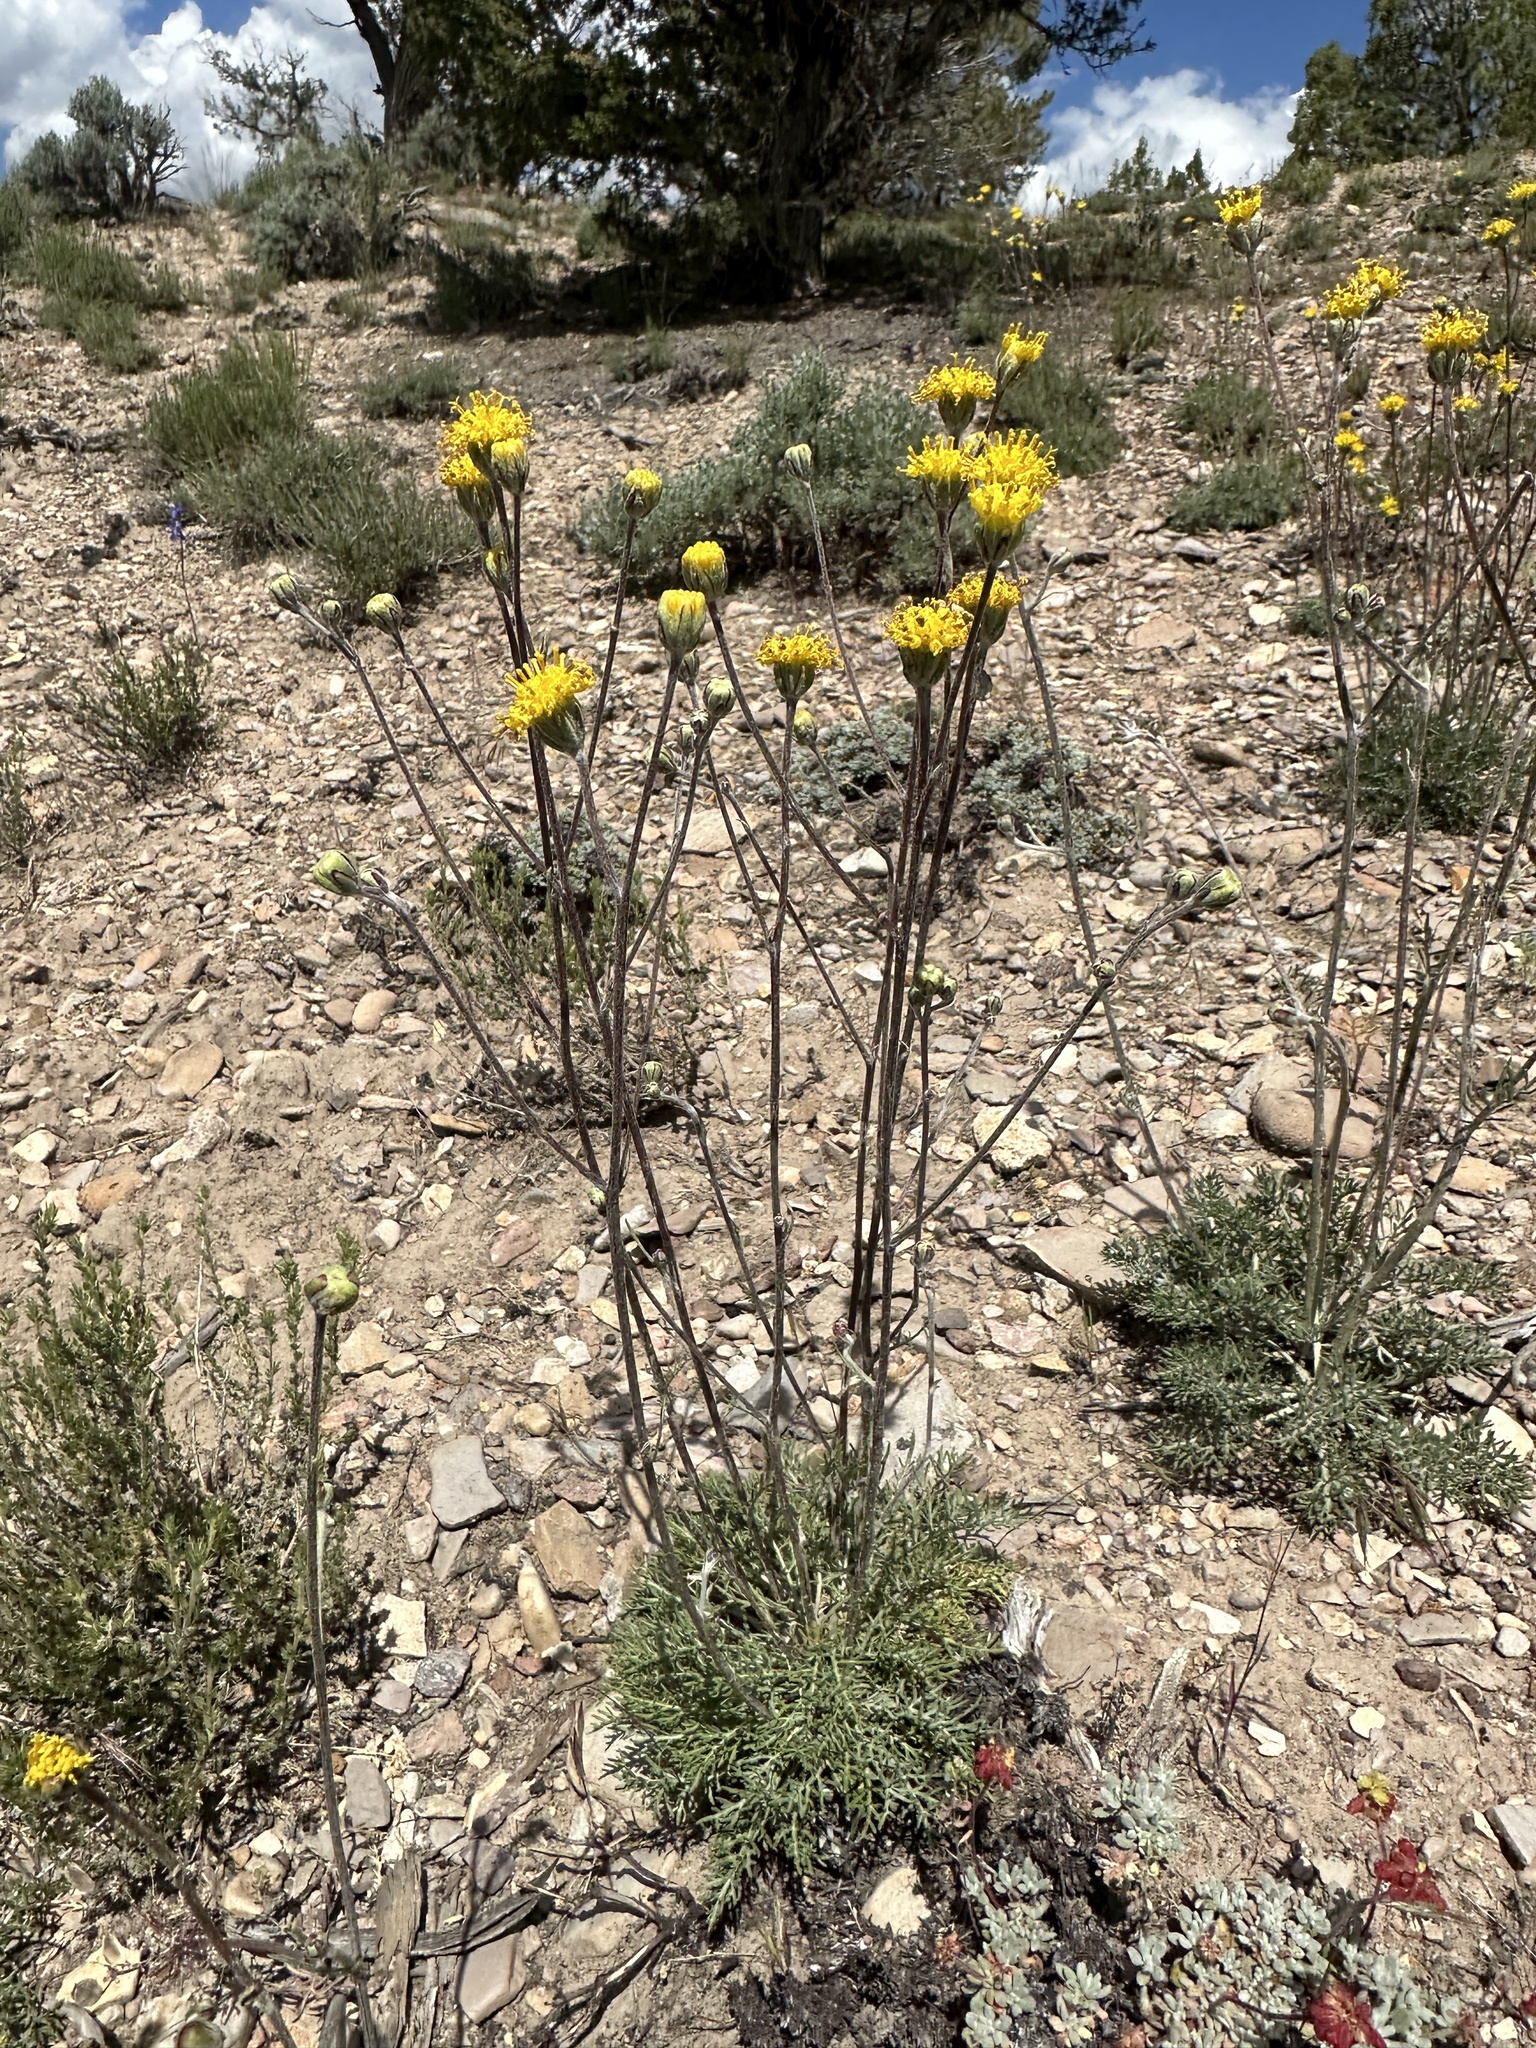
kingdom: Plantae
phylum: Tracheophyta
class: Magnoliopsida
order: Asterales
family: Asteraceae
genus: Hymenopappus
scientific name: Hymenopappus filifolius
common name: Columbia cutleaf
